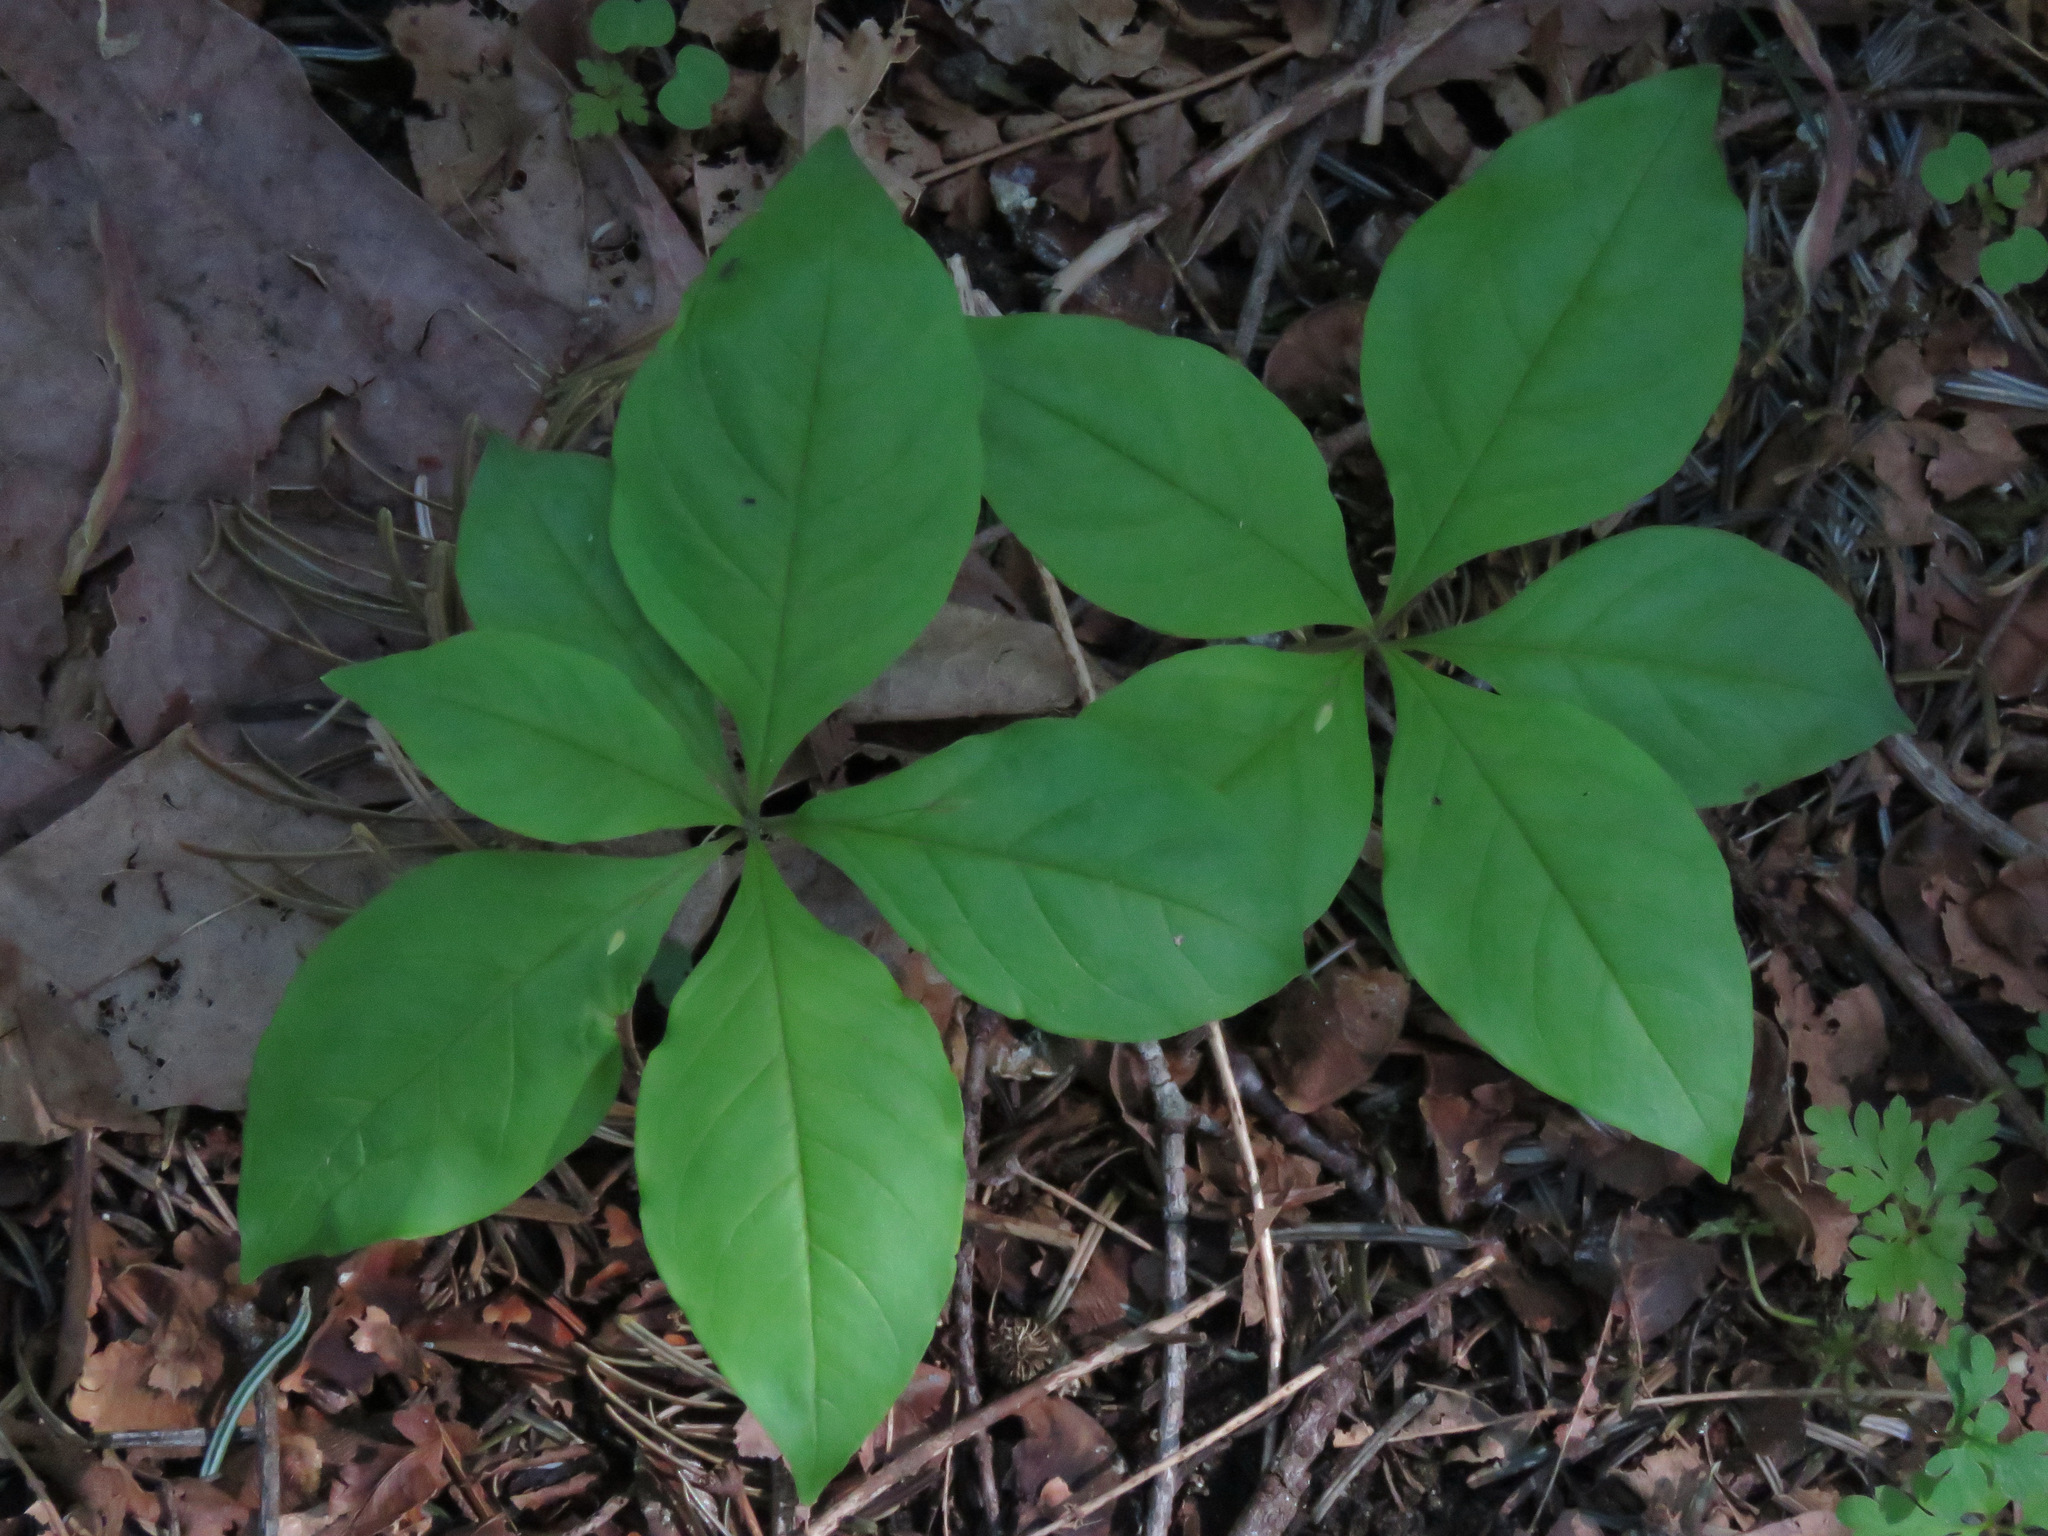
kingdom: Plantae
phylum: Tracheophyta
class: Magnoliopsida
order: Ericales
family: Primulaceae
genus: Lysimachia
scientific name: Lysimachia latifolia
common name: Pacific starflower
